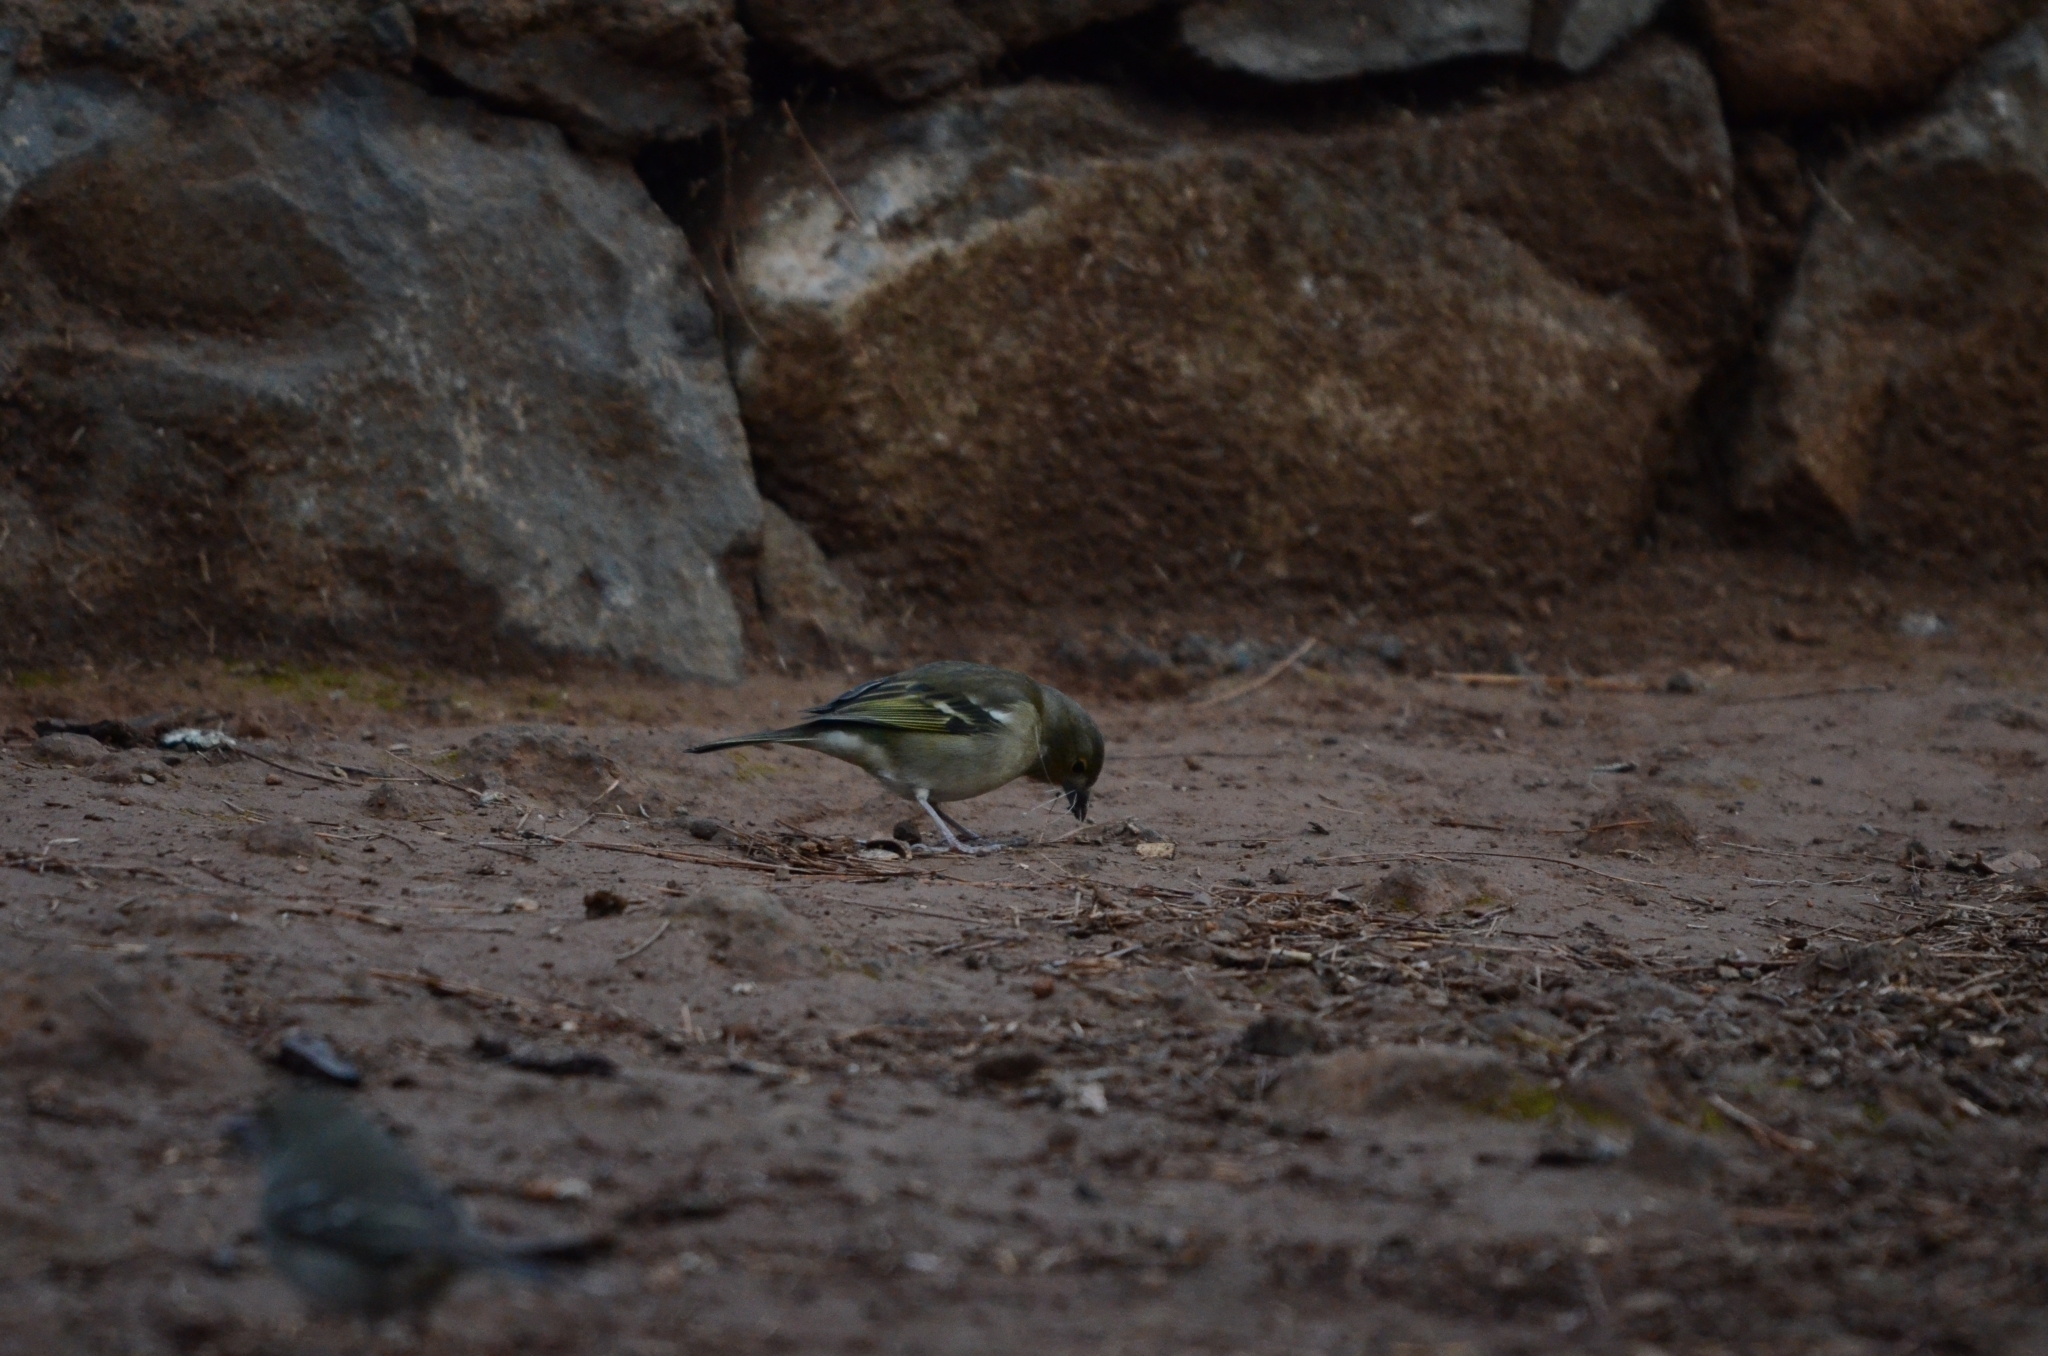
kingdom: Animalia
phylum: Chordata
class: Aves
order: Passeriformes
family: Fringillidae
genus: Fringilla
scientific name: Fringilla canariensis
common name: Canary islands chaffinch
